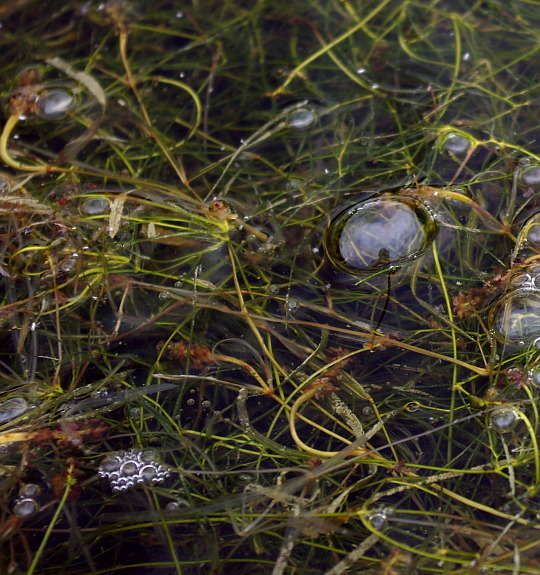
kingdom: Plantae
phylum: Tracheophyta
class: Liliopsida
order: Alismatales
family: Potamogetonaceae
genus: Stuckenia
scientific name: Stuckenia pectinata
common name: Sago pondweed
